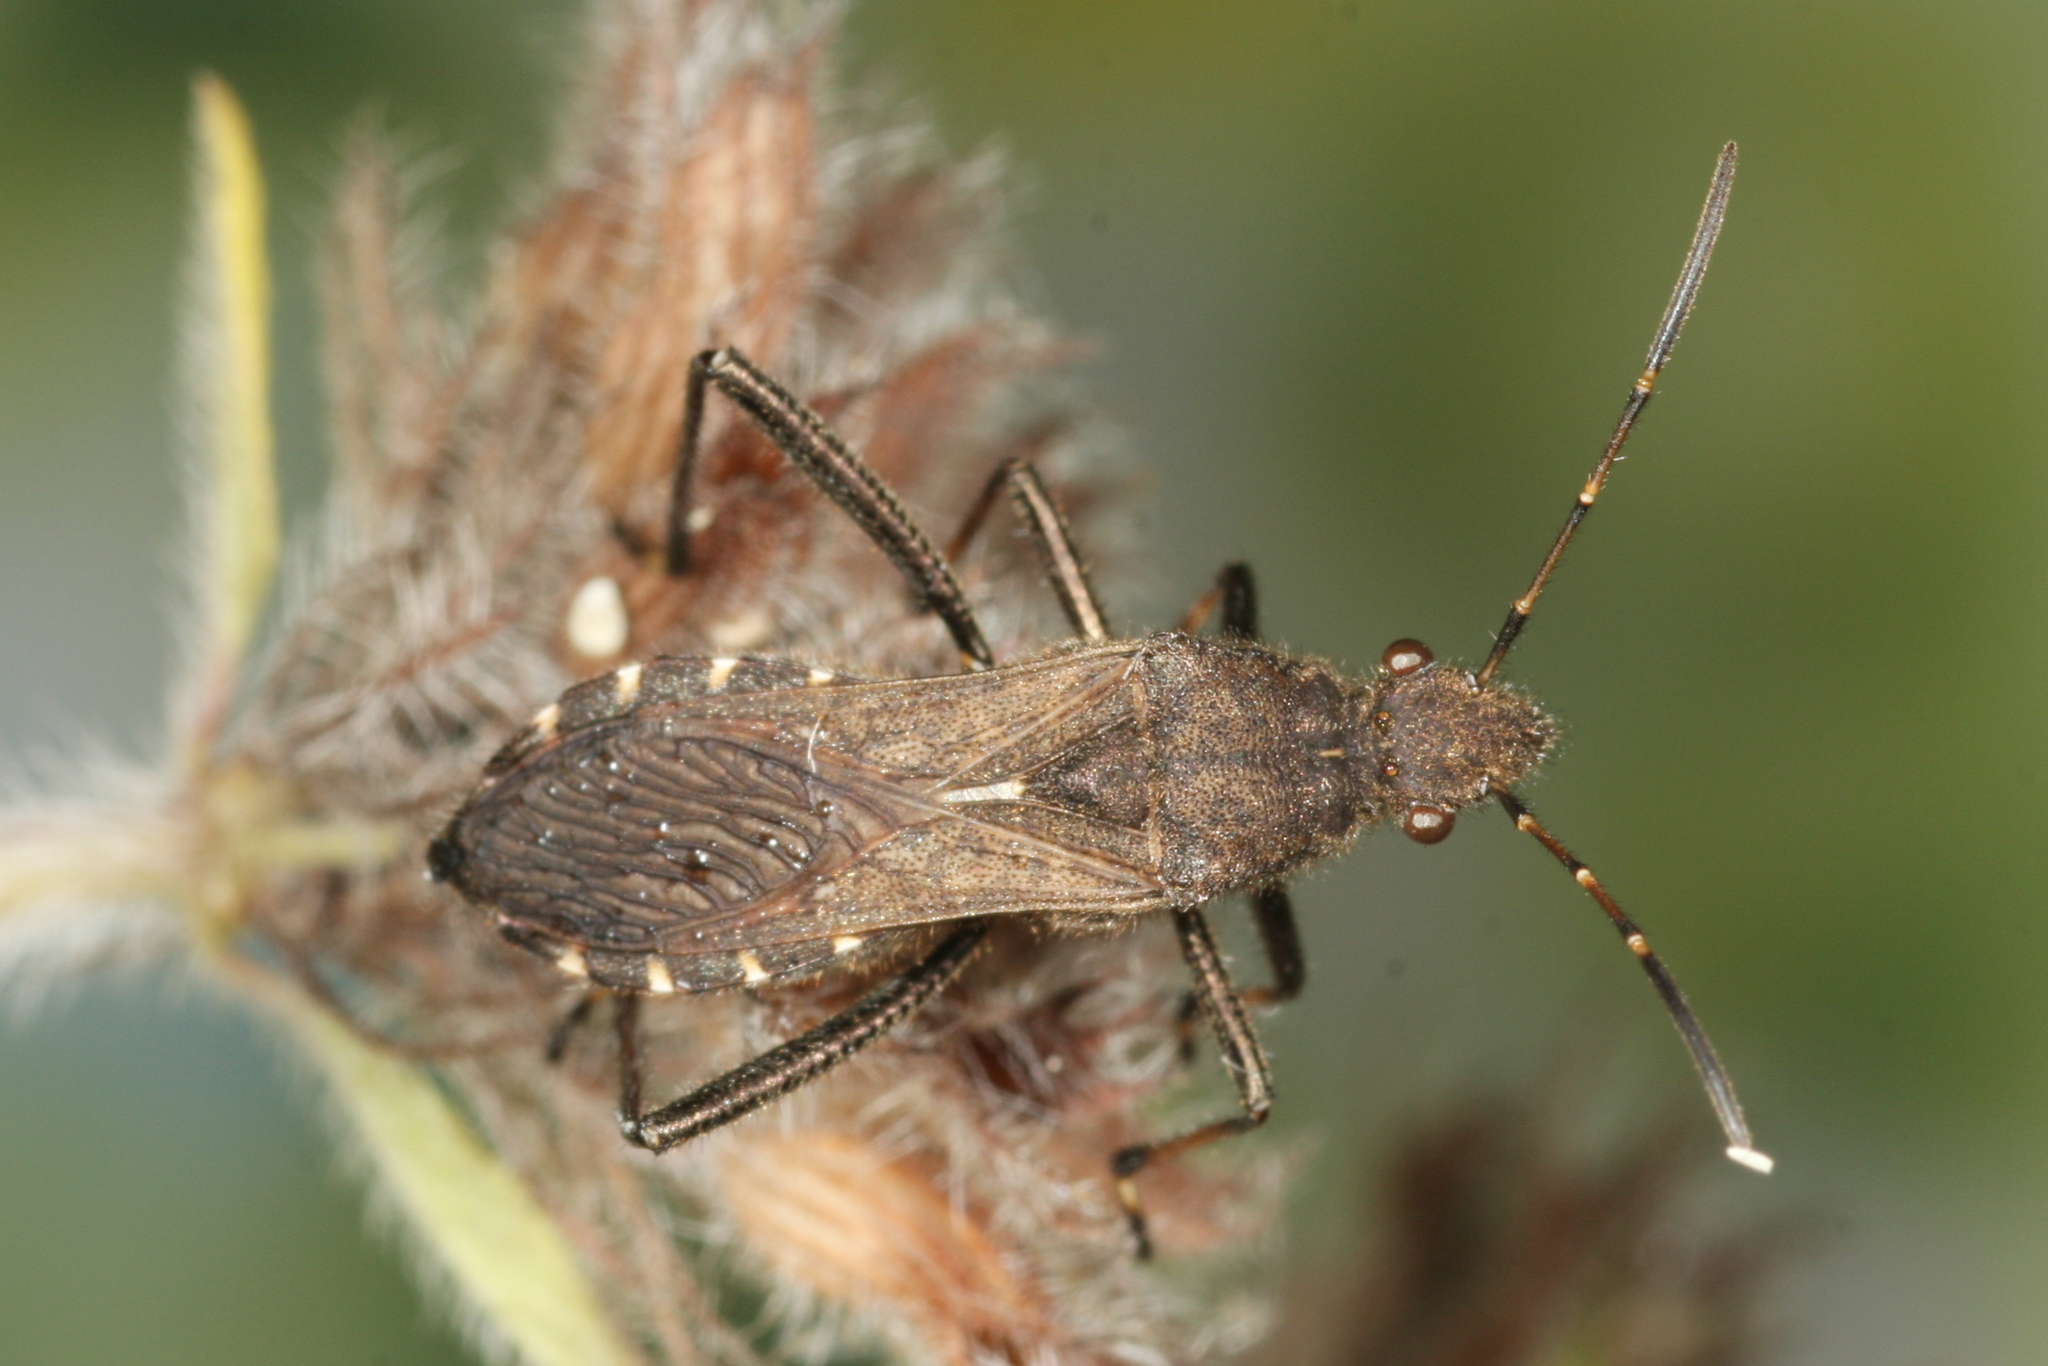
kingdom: Animalia
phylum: Arthropoda
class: Insecta
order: Hemiptera
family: Alydidae
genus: Alydus
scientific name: Alydus calcaratus
